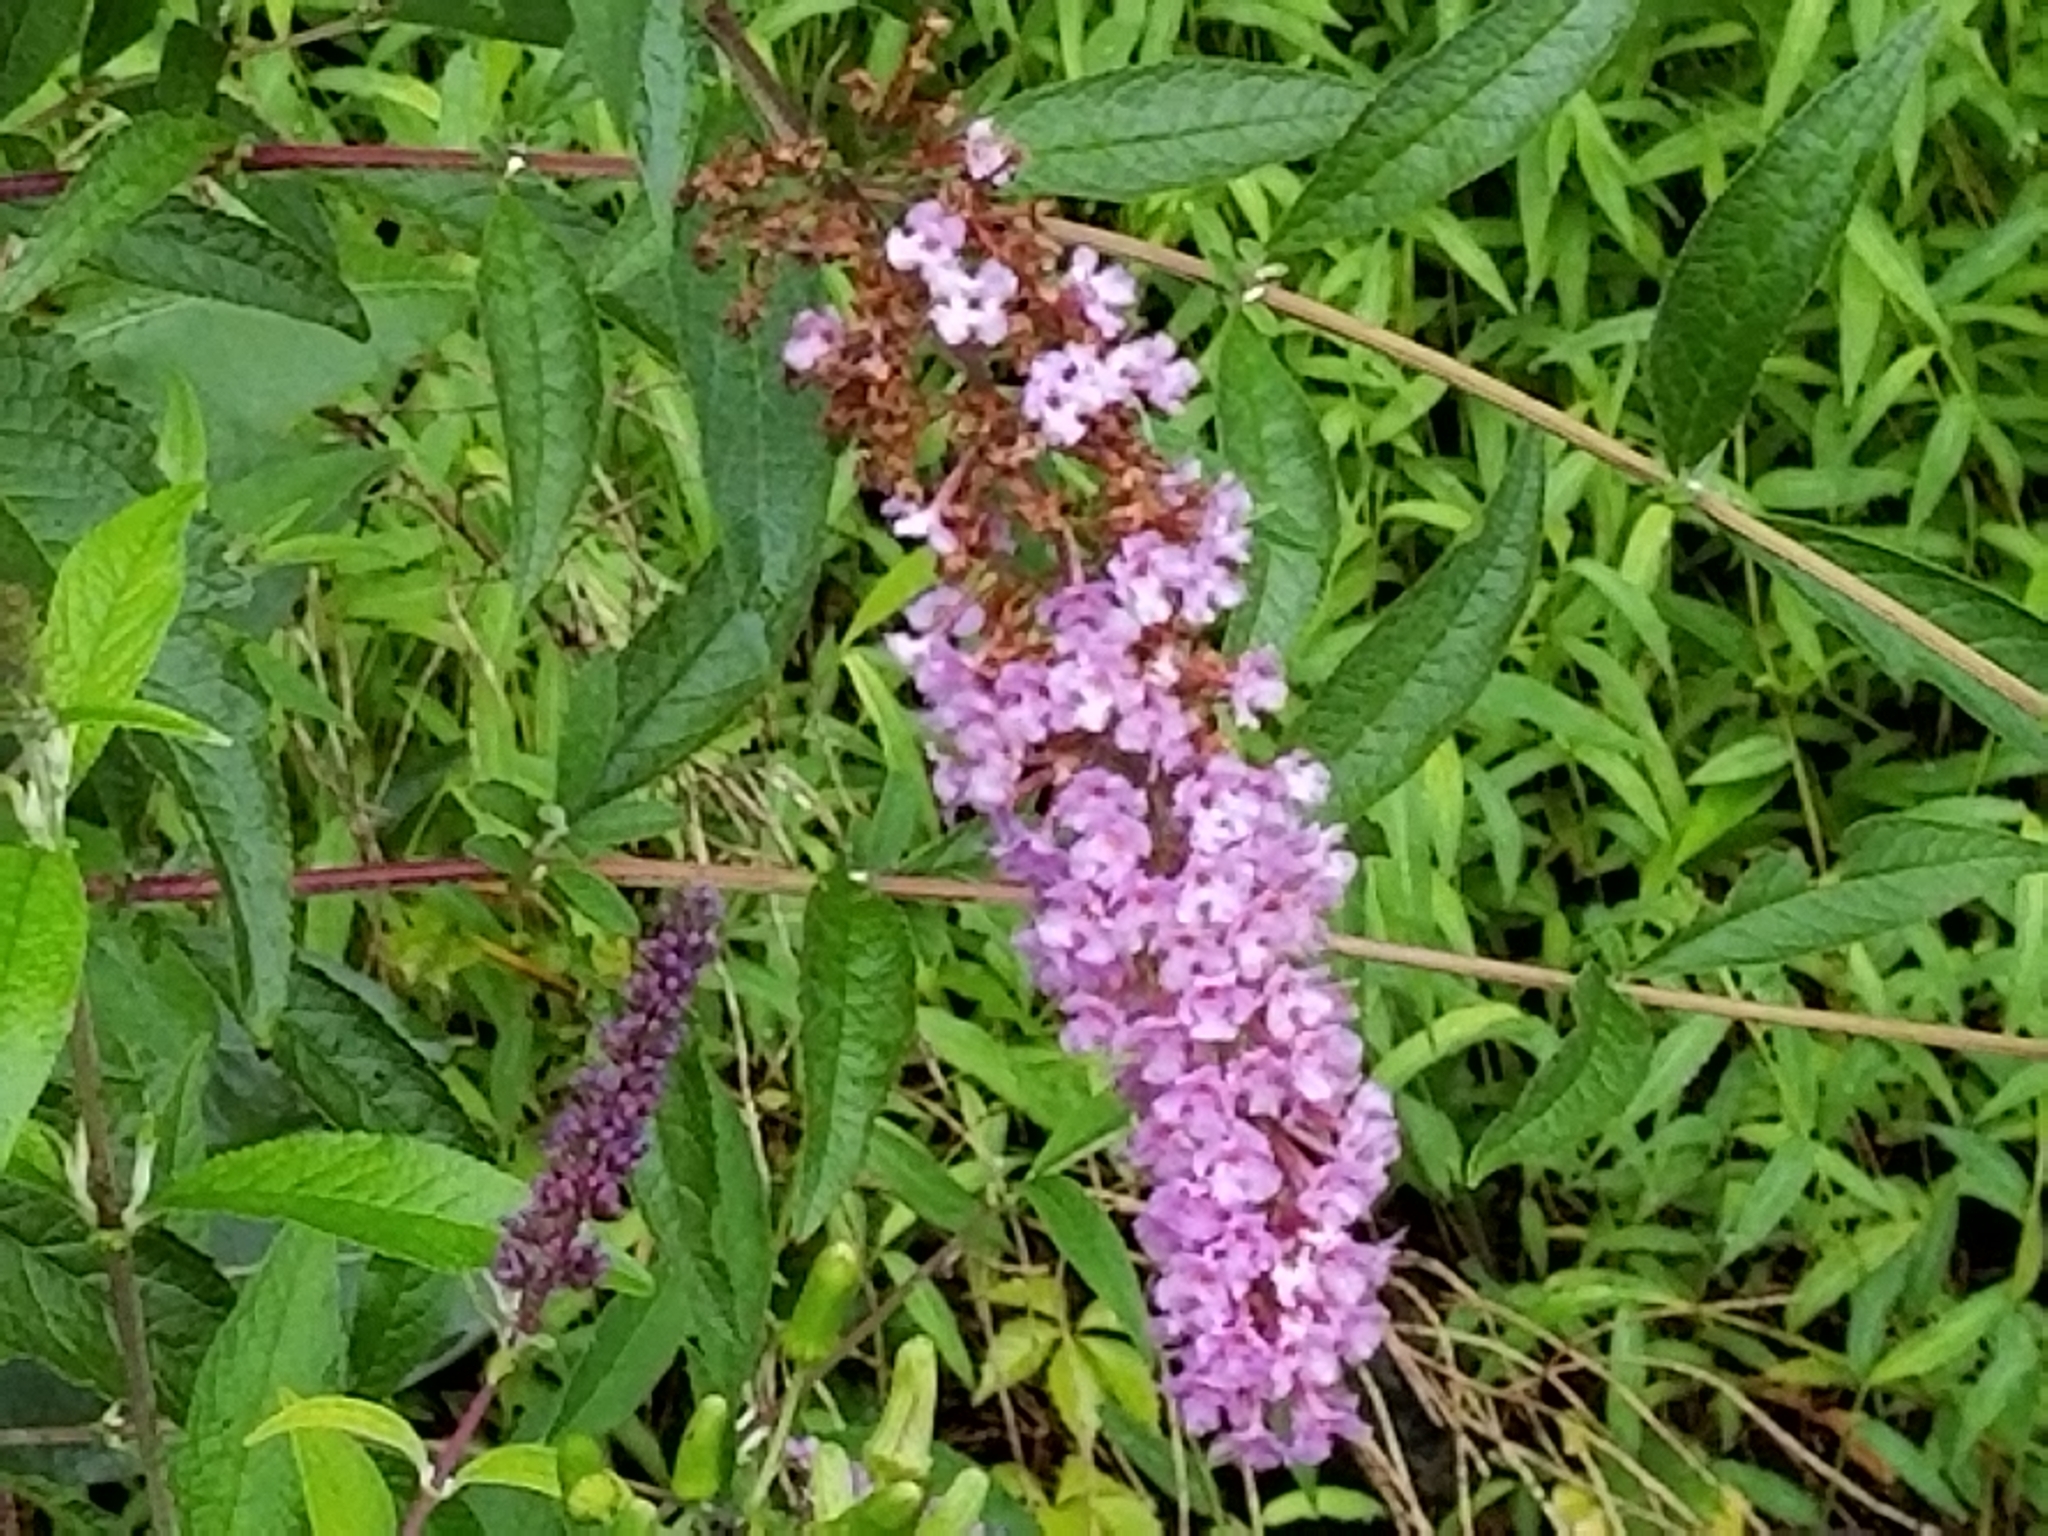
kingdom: Plantae
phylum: Tracheophyta
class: Magnoliopsida
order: Lamiales
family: Scrophulariaceae
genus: Buddleja
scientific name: Buddleja davidii
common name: Butterfly-bush
